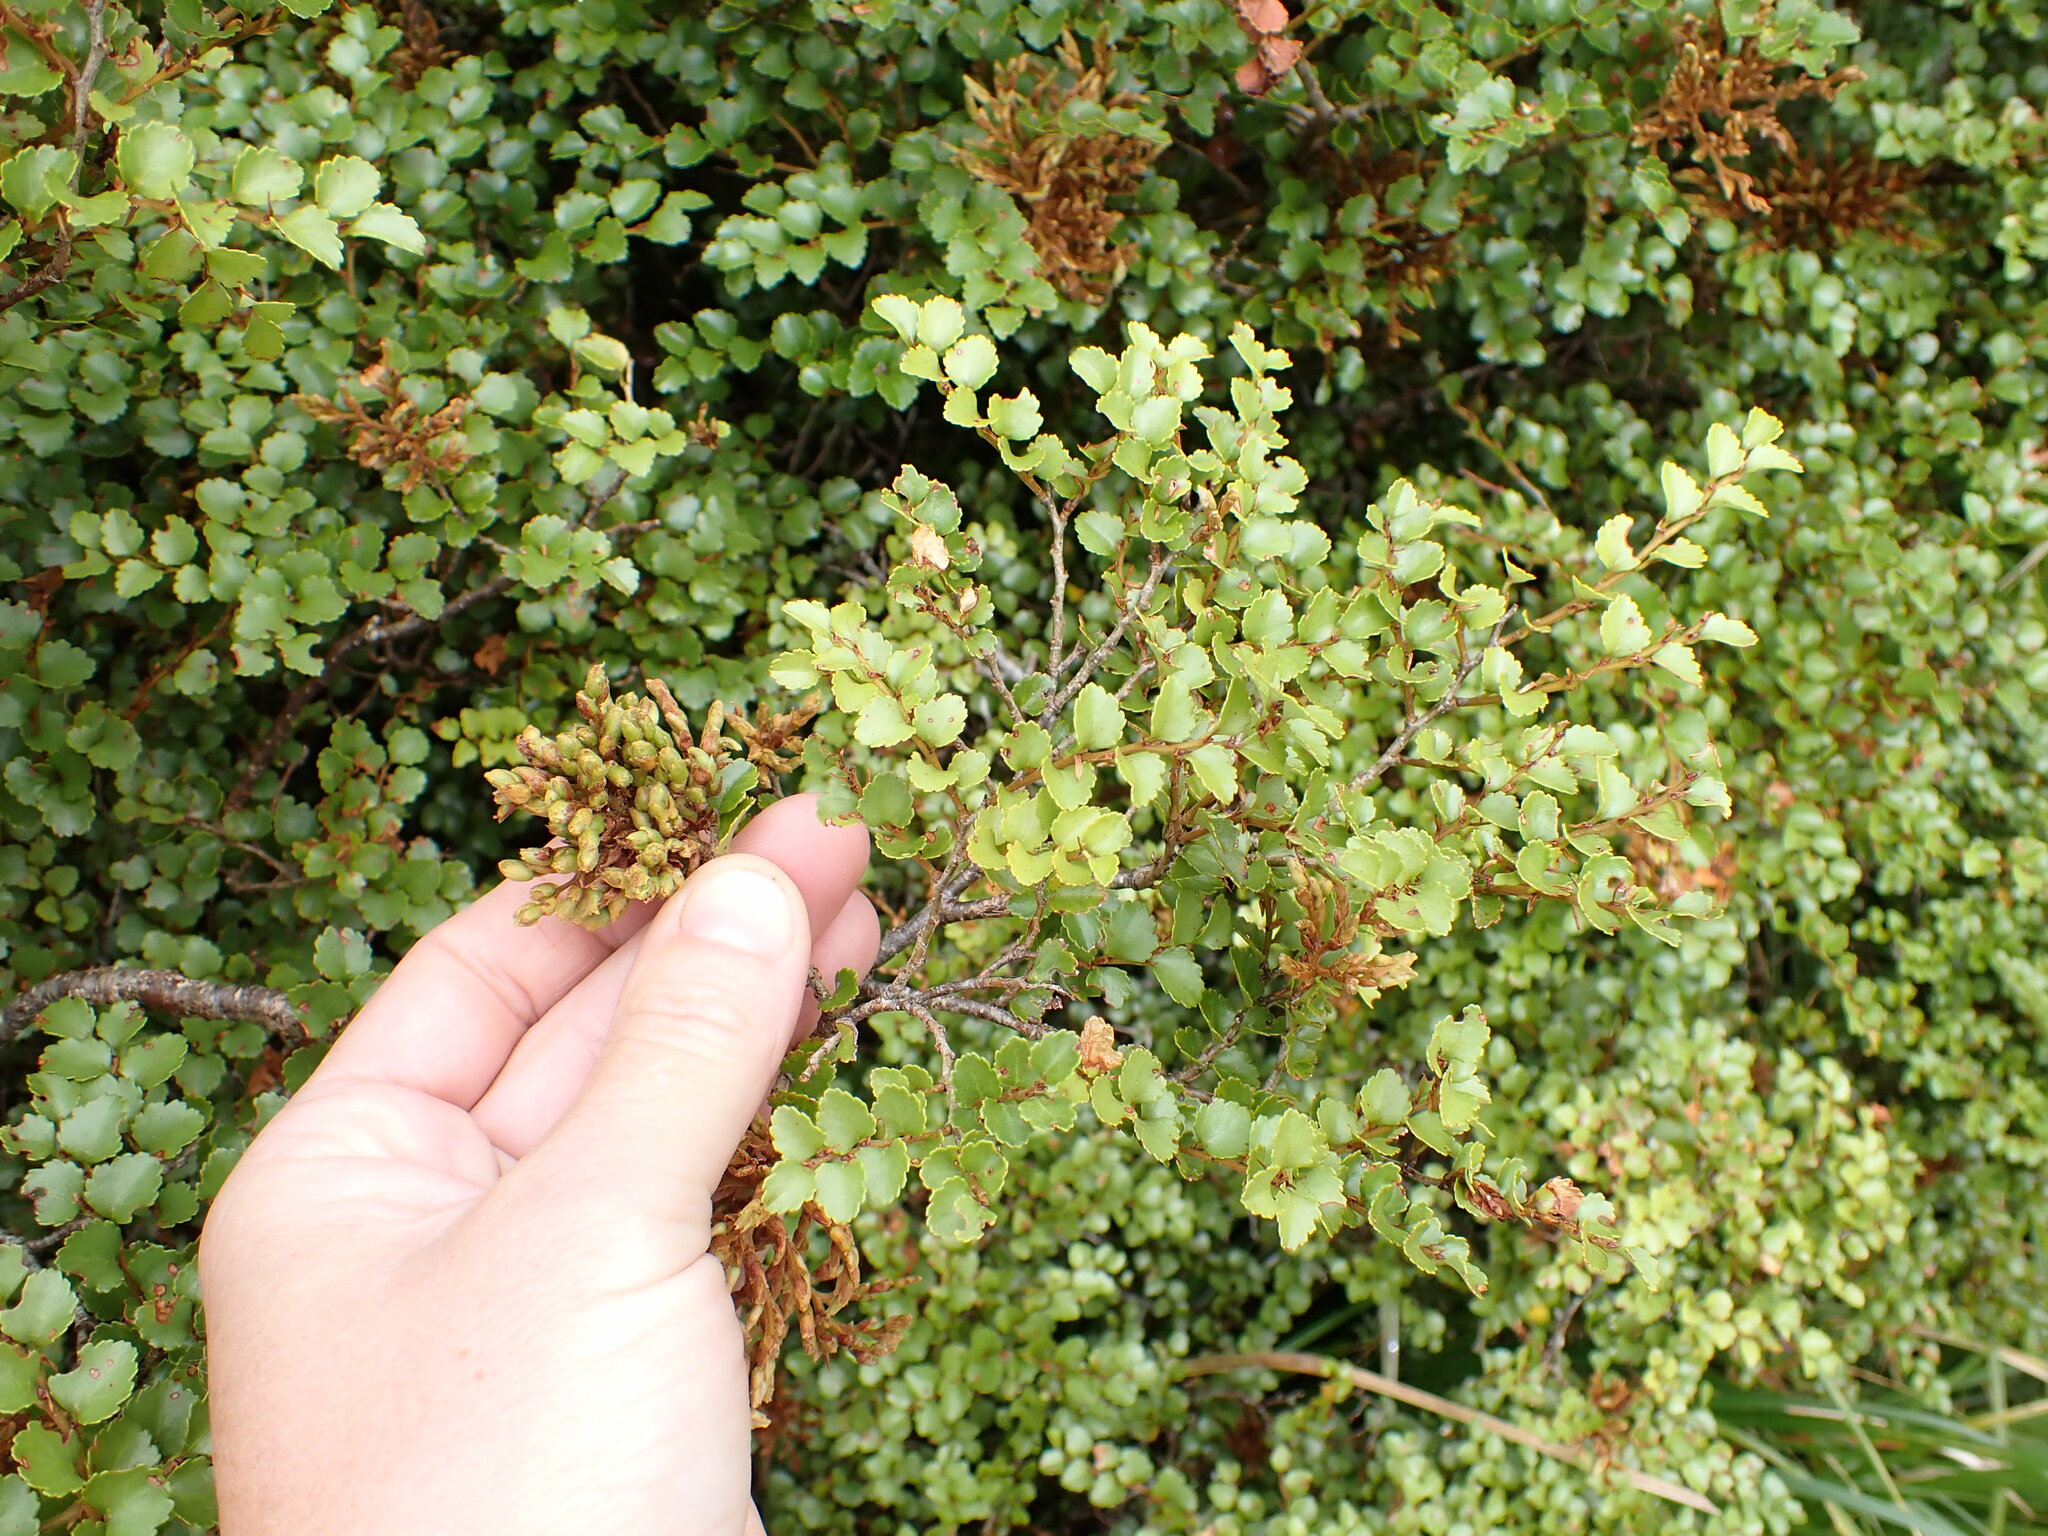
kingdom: Plantae
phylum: Tracheophyta
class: Magnoliopsida
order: Fagales
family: Nothofagaceae
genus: Nothofagus
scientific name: Nothofagus menziesii
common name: Silver beech
